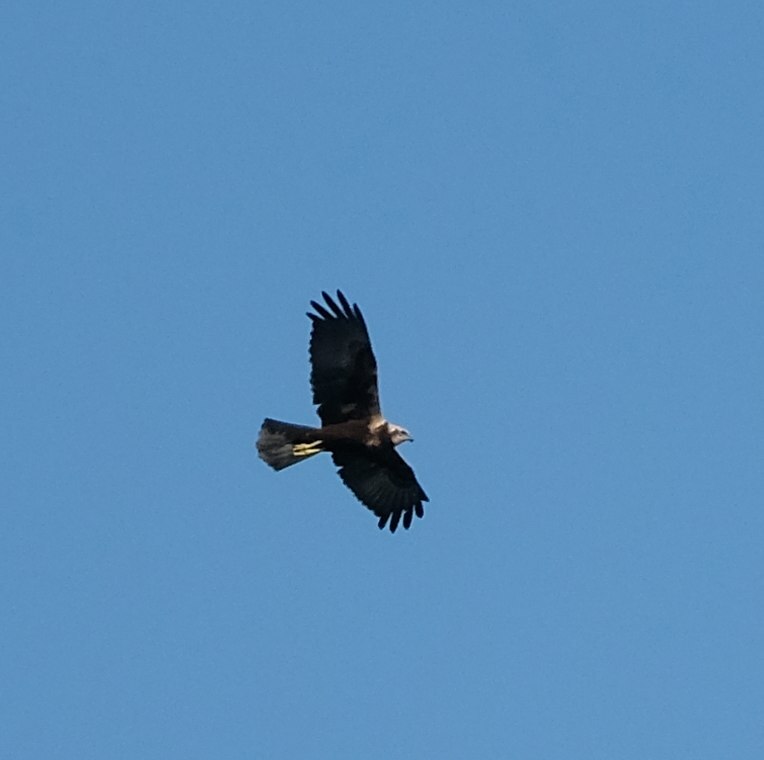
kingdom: Animalia
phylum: Chordata
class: Aves
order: Accipitriformes
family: Accipitridae
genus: Circus
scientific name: Circus aeruginosus
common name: Western marsh harrier
